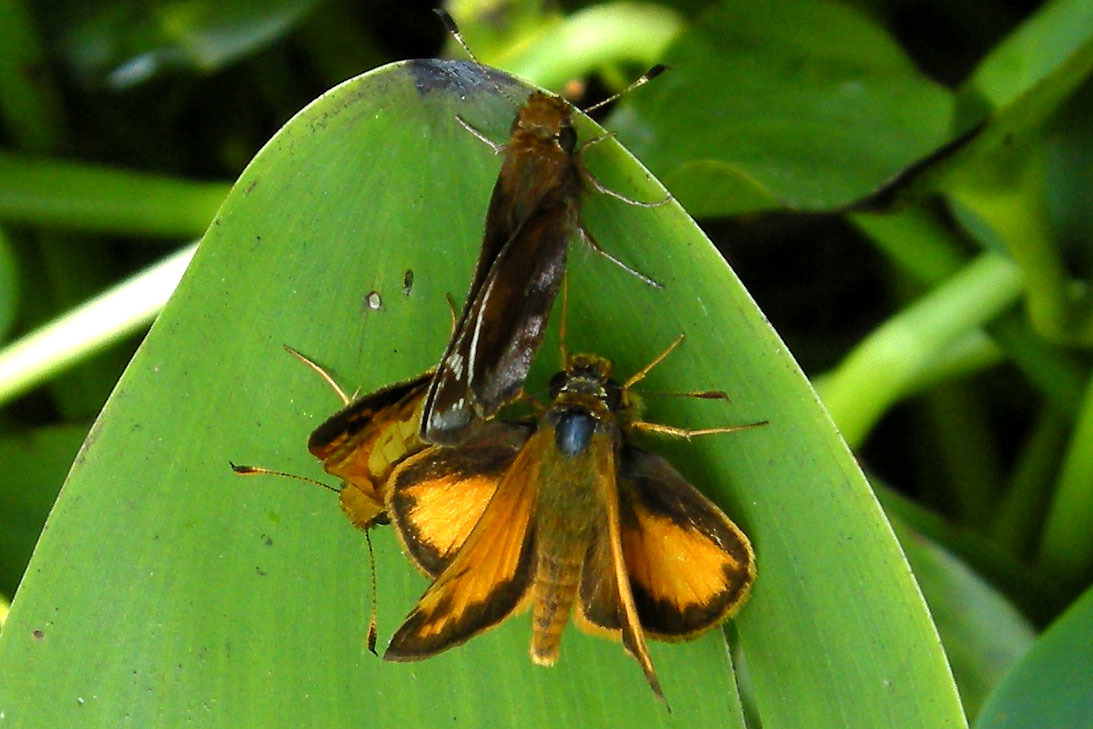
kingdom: Animalia
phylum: Arthropoda
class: Insecta
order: Lepidoptera
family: Hesperiidae
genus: Lon
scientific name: Lon zabulon
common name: Zabulon skipper
